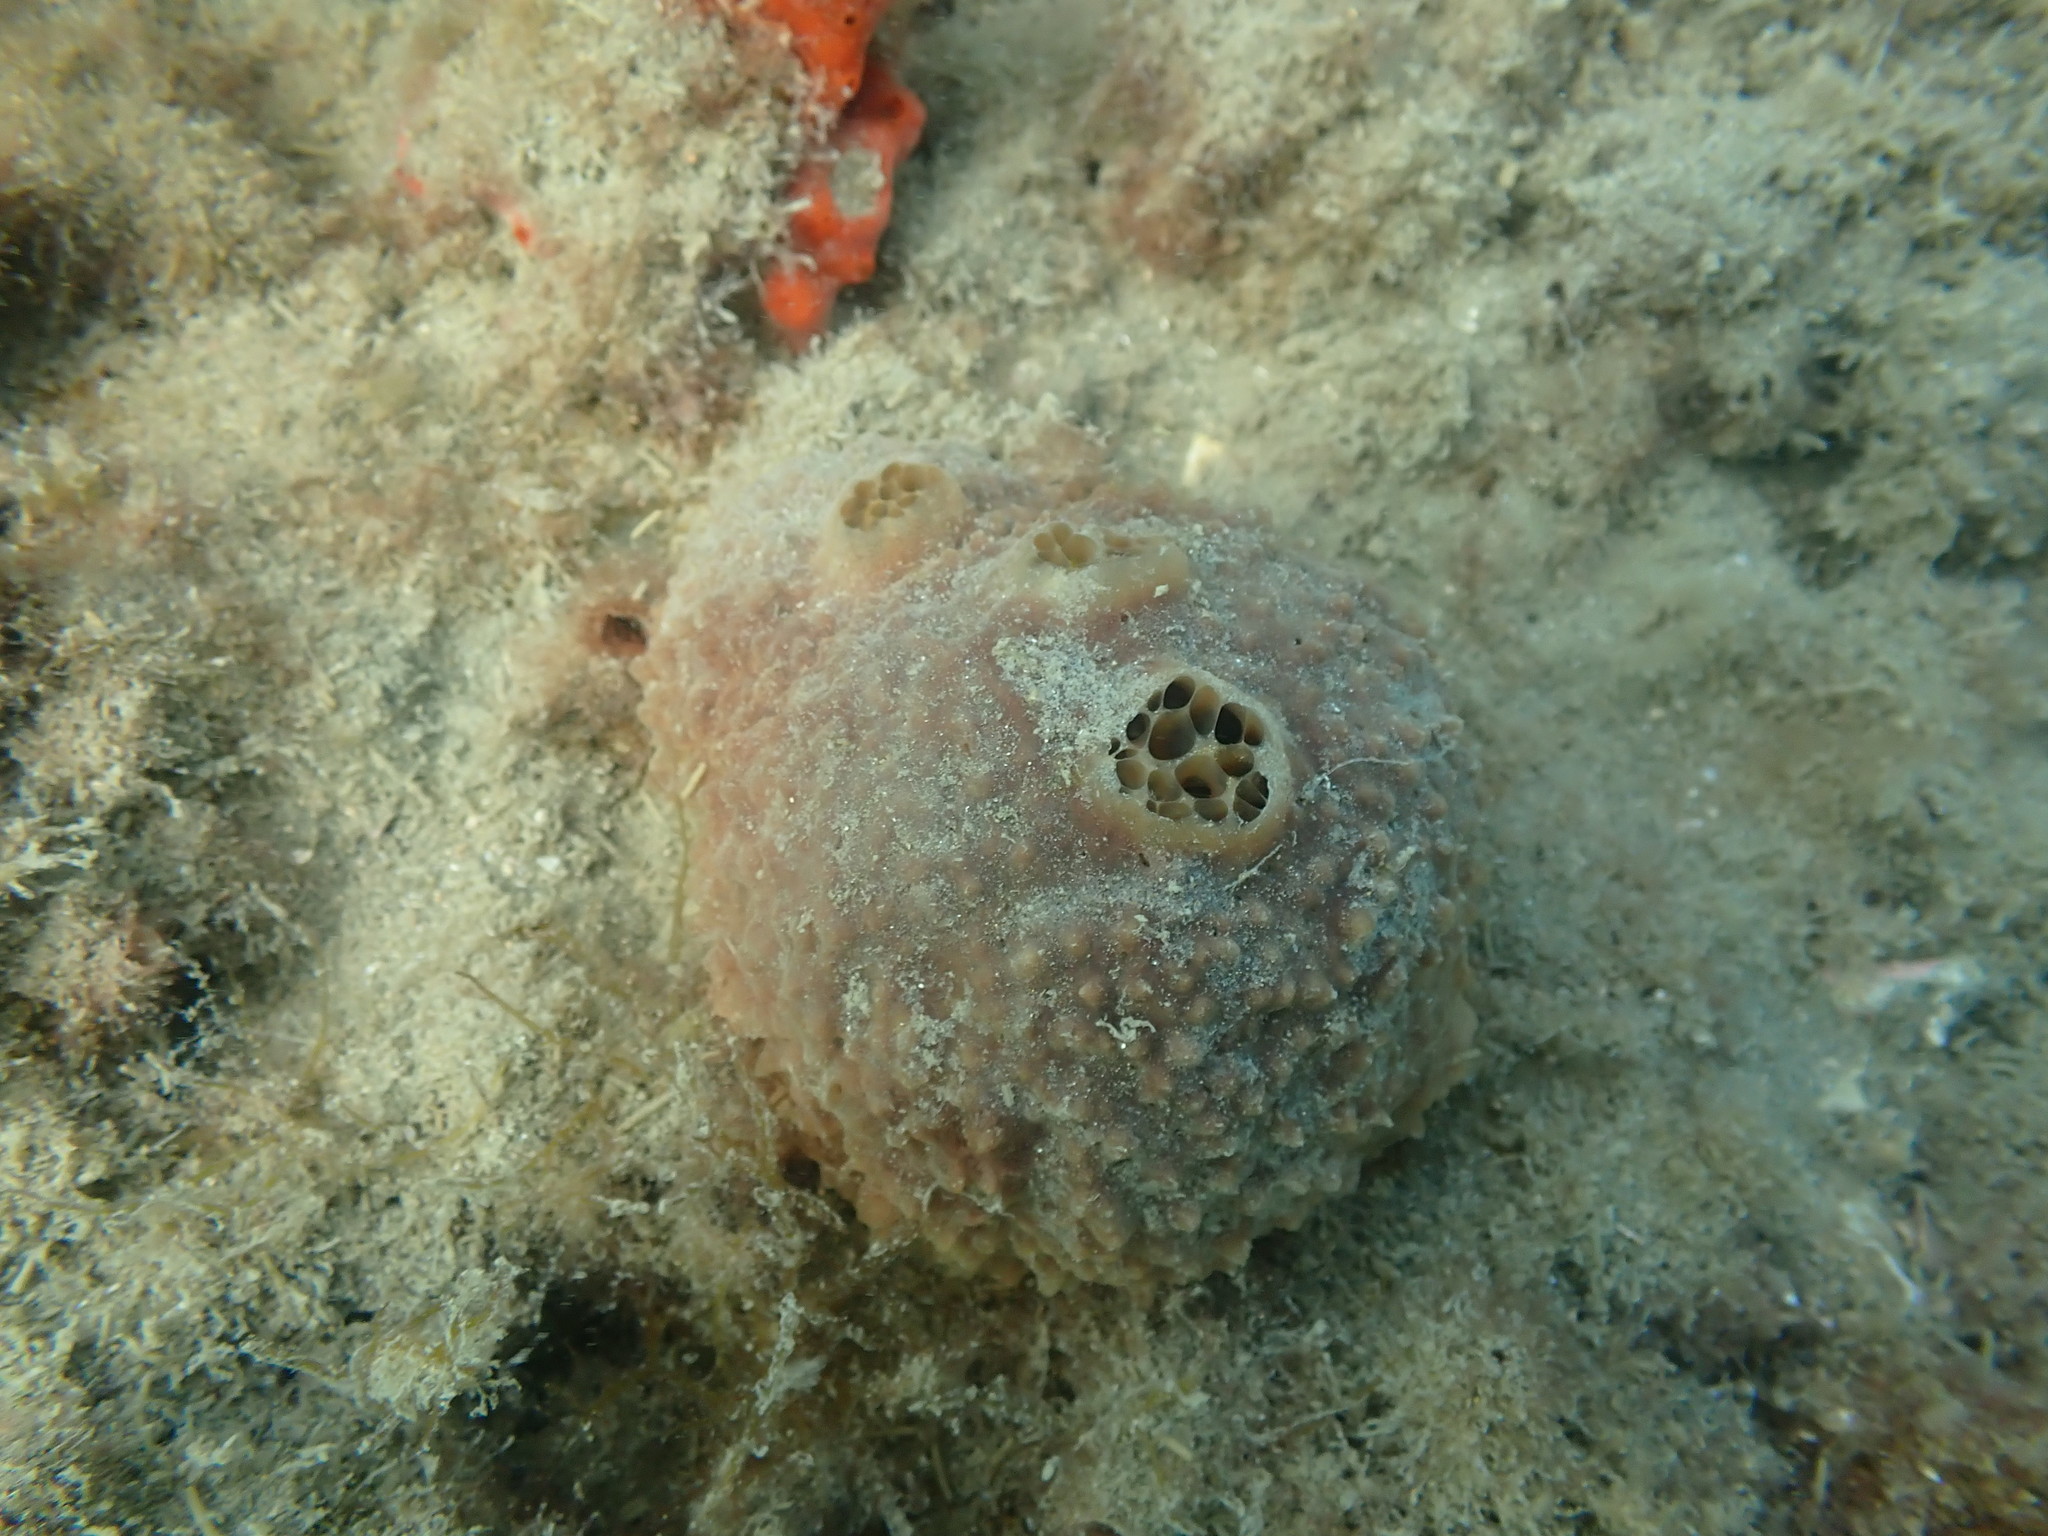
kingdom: Animalia
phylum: Porifera
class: Demospongiae
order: Suberitida
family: Suberitidae
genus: Aaptos
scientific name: Aaptos tenta
